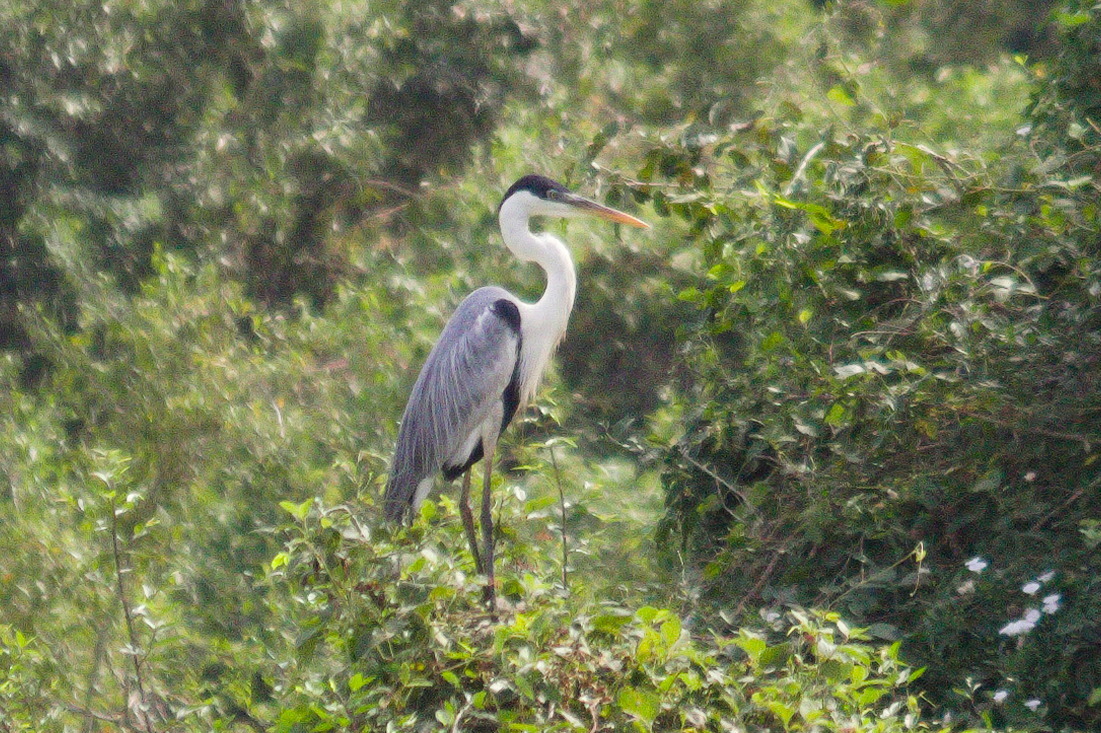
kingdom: Animalia
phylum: Chordata
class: Aves
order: Pelecaniformes
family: Ardeidae
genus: Ardea
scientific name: Ardea cocoi
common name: Cocoi heron
